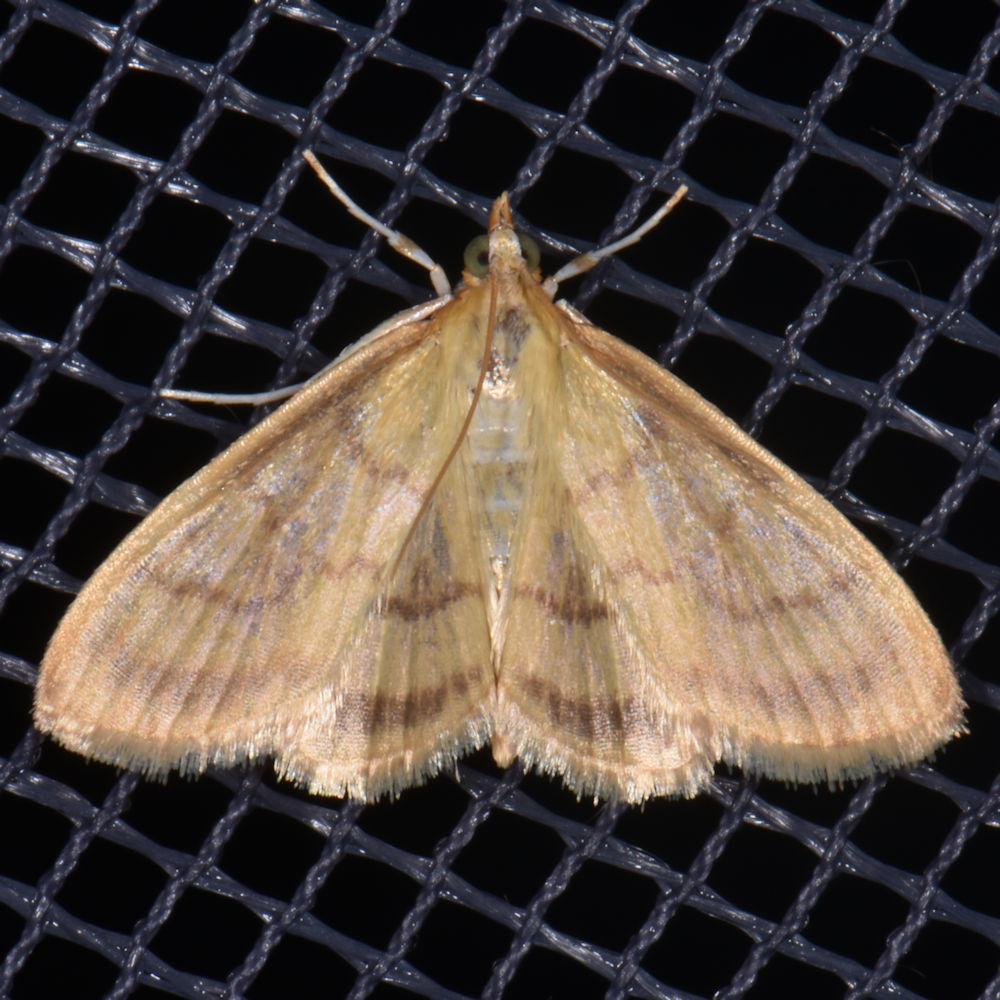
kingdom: Animalia
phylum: Arthropoda
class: Insecta
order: Lepidoptera
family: Crambidae
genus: Crocidophora
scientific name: Crocidophora tuberculalis
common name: Pale-winged crocidiphora moth
